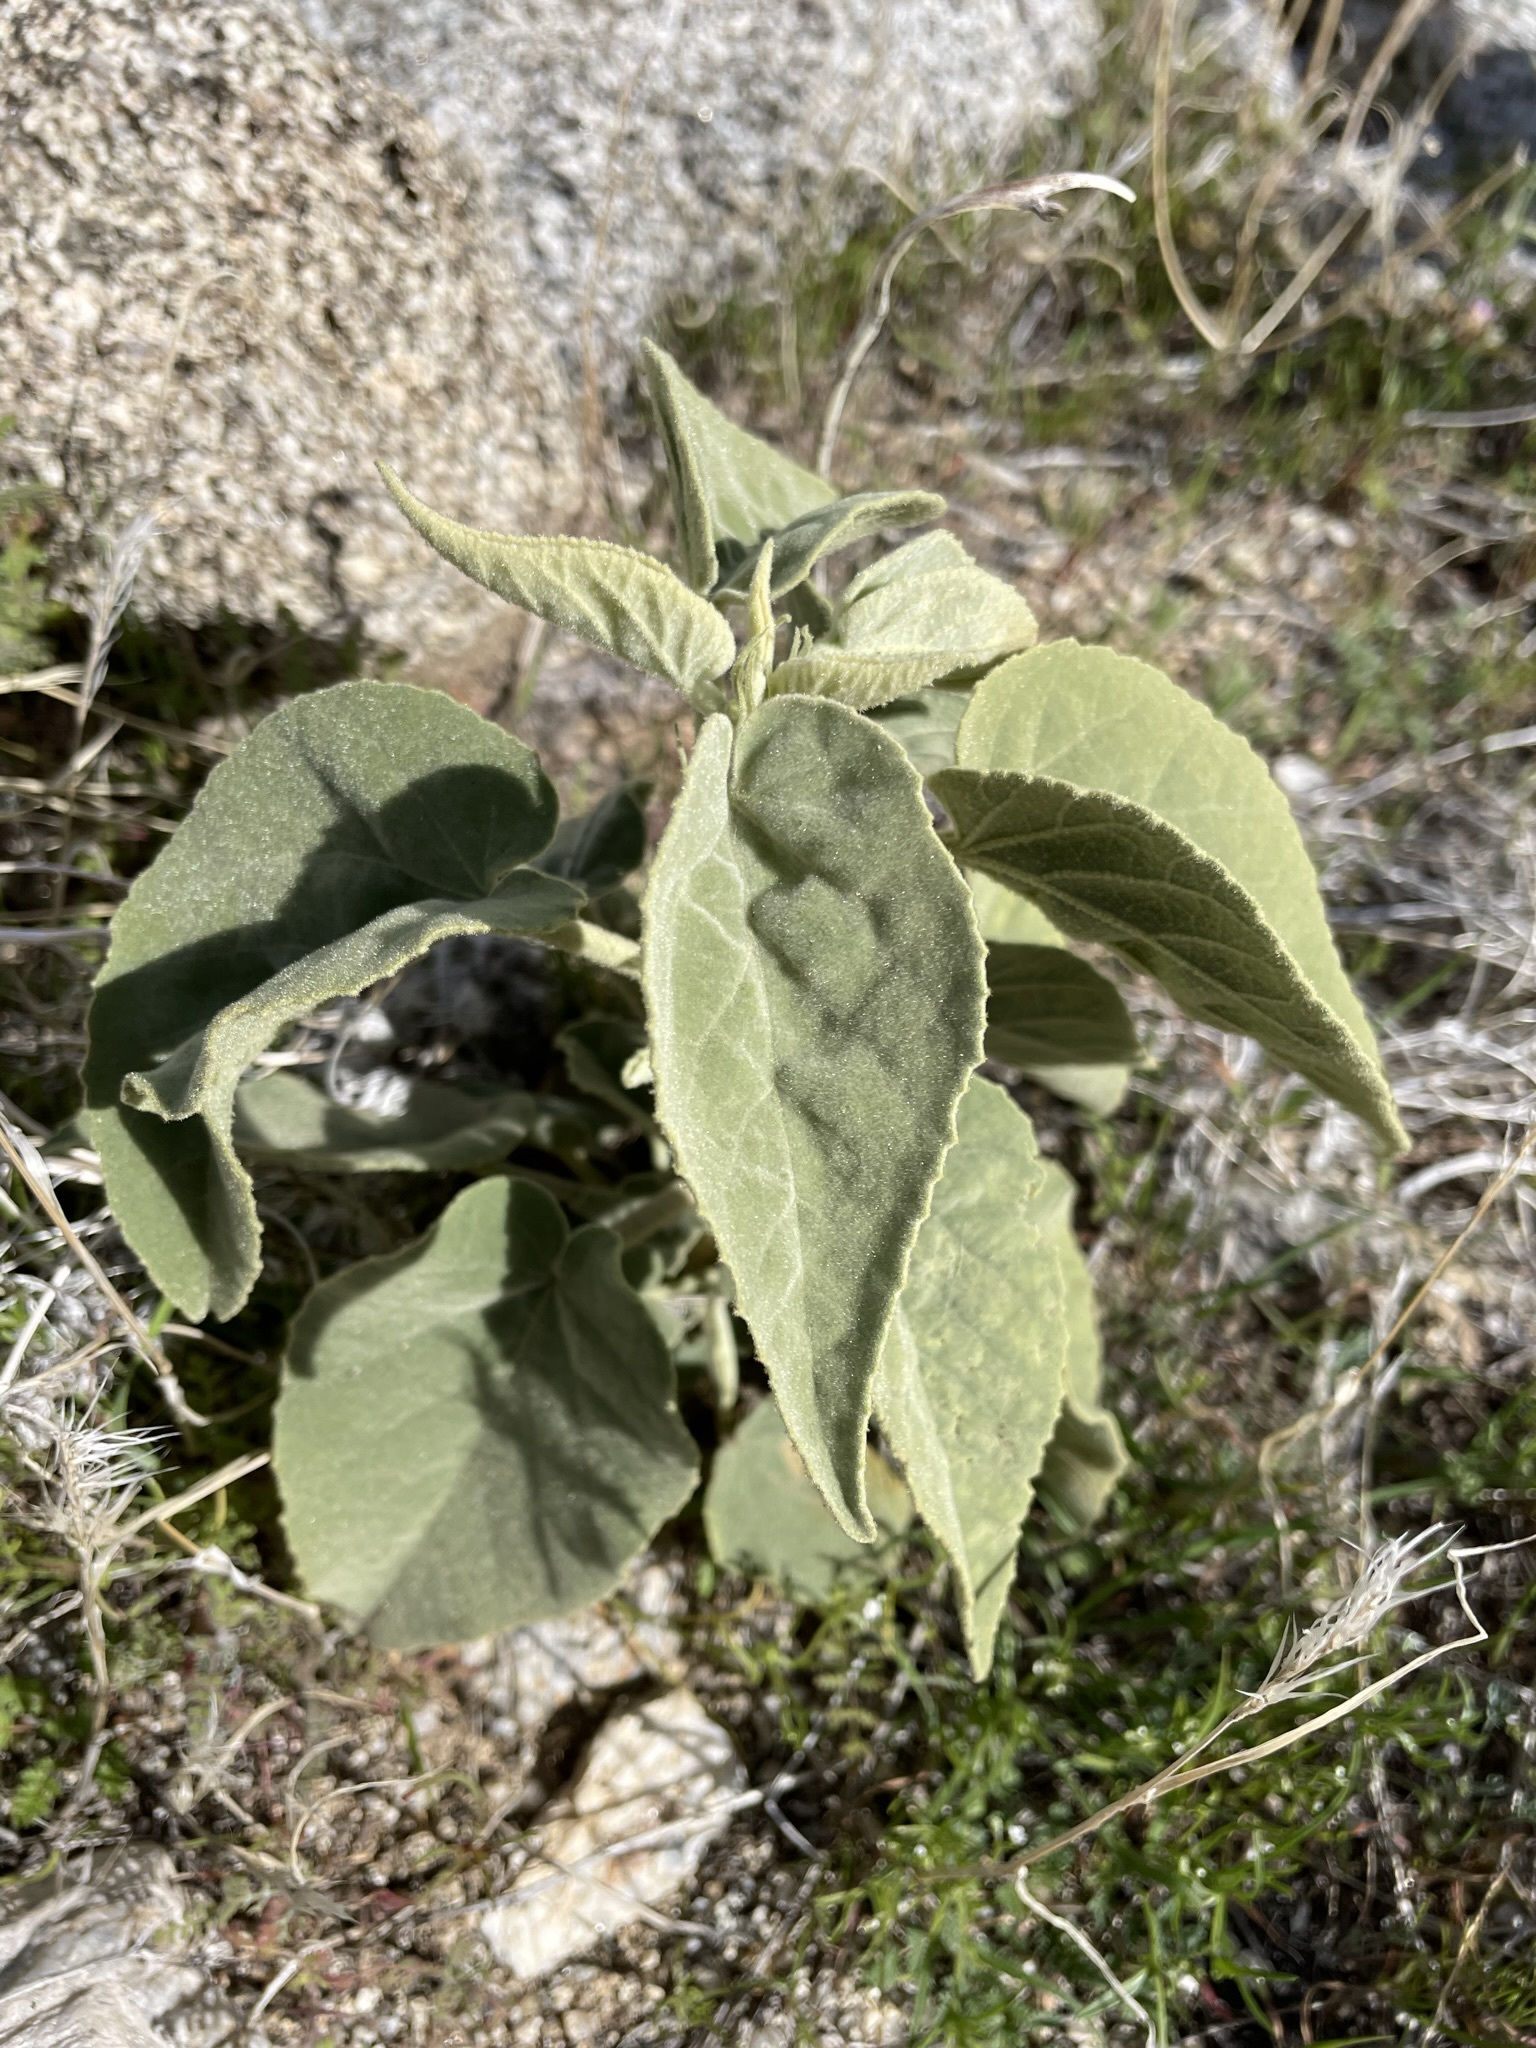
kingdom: Plantae
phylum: Tracheophyta
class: Magnoliopsida
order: Malvales
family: Malvaceae
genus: Horsfordia
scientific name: Horsfordia newberryi
